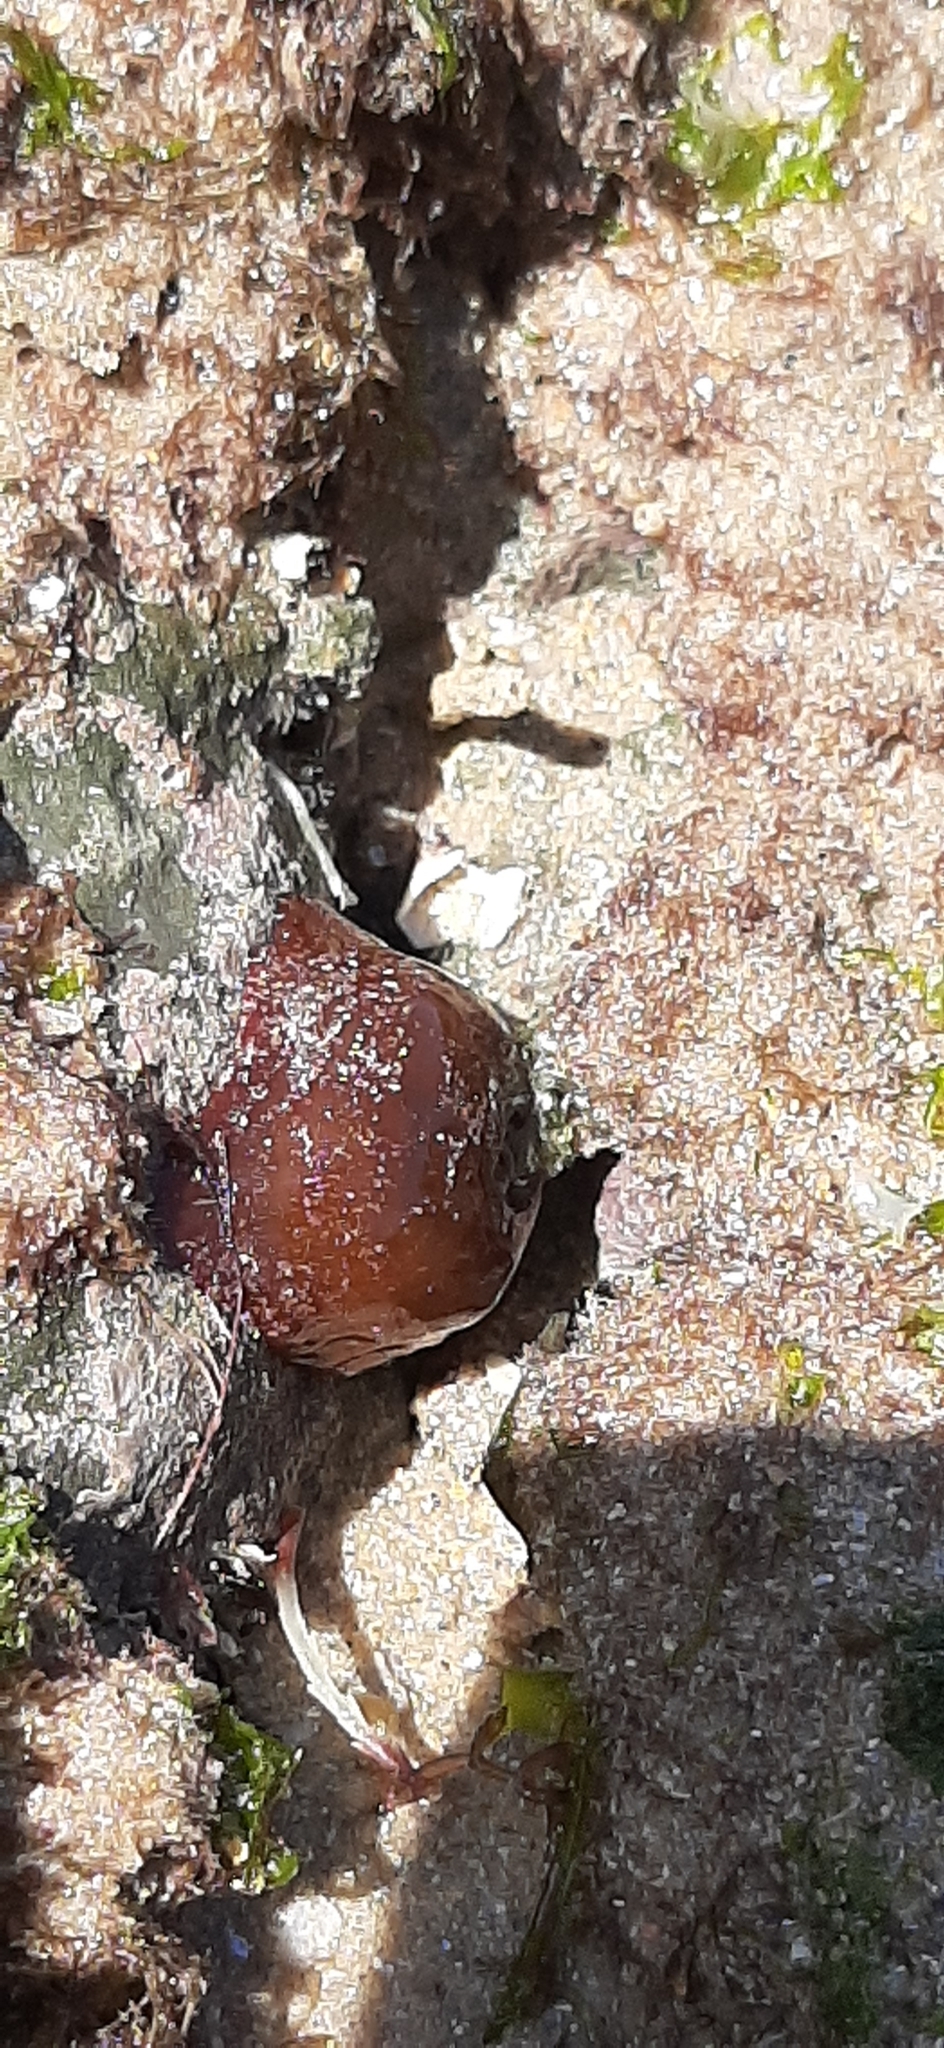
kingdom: Animalia
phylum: Cnidaria
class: Anthozoa
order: Actiniaria
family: Actiniidae
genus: Actinia
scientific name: Actinia equina
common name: Beadlet anemone
